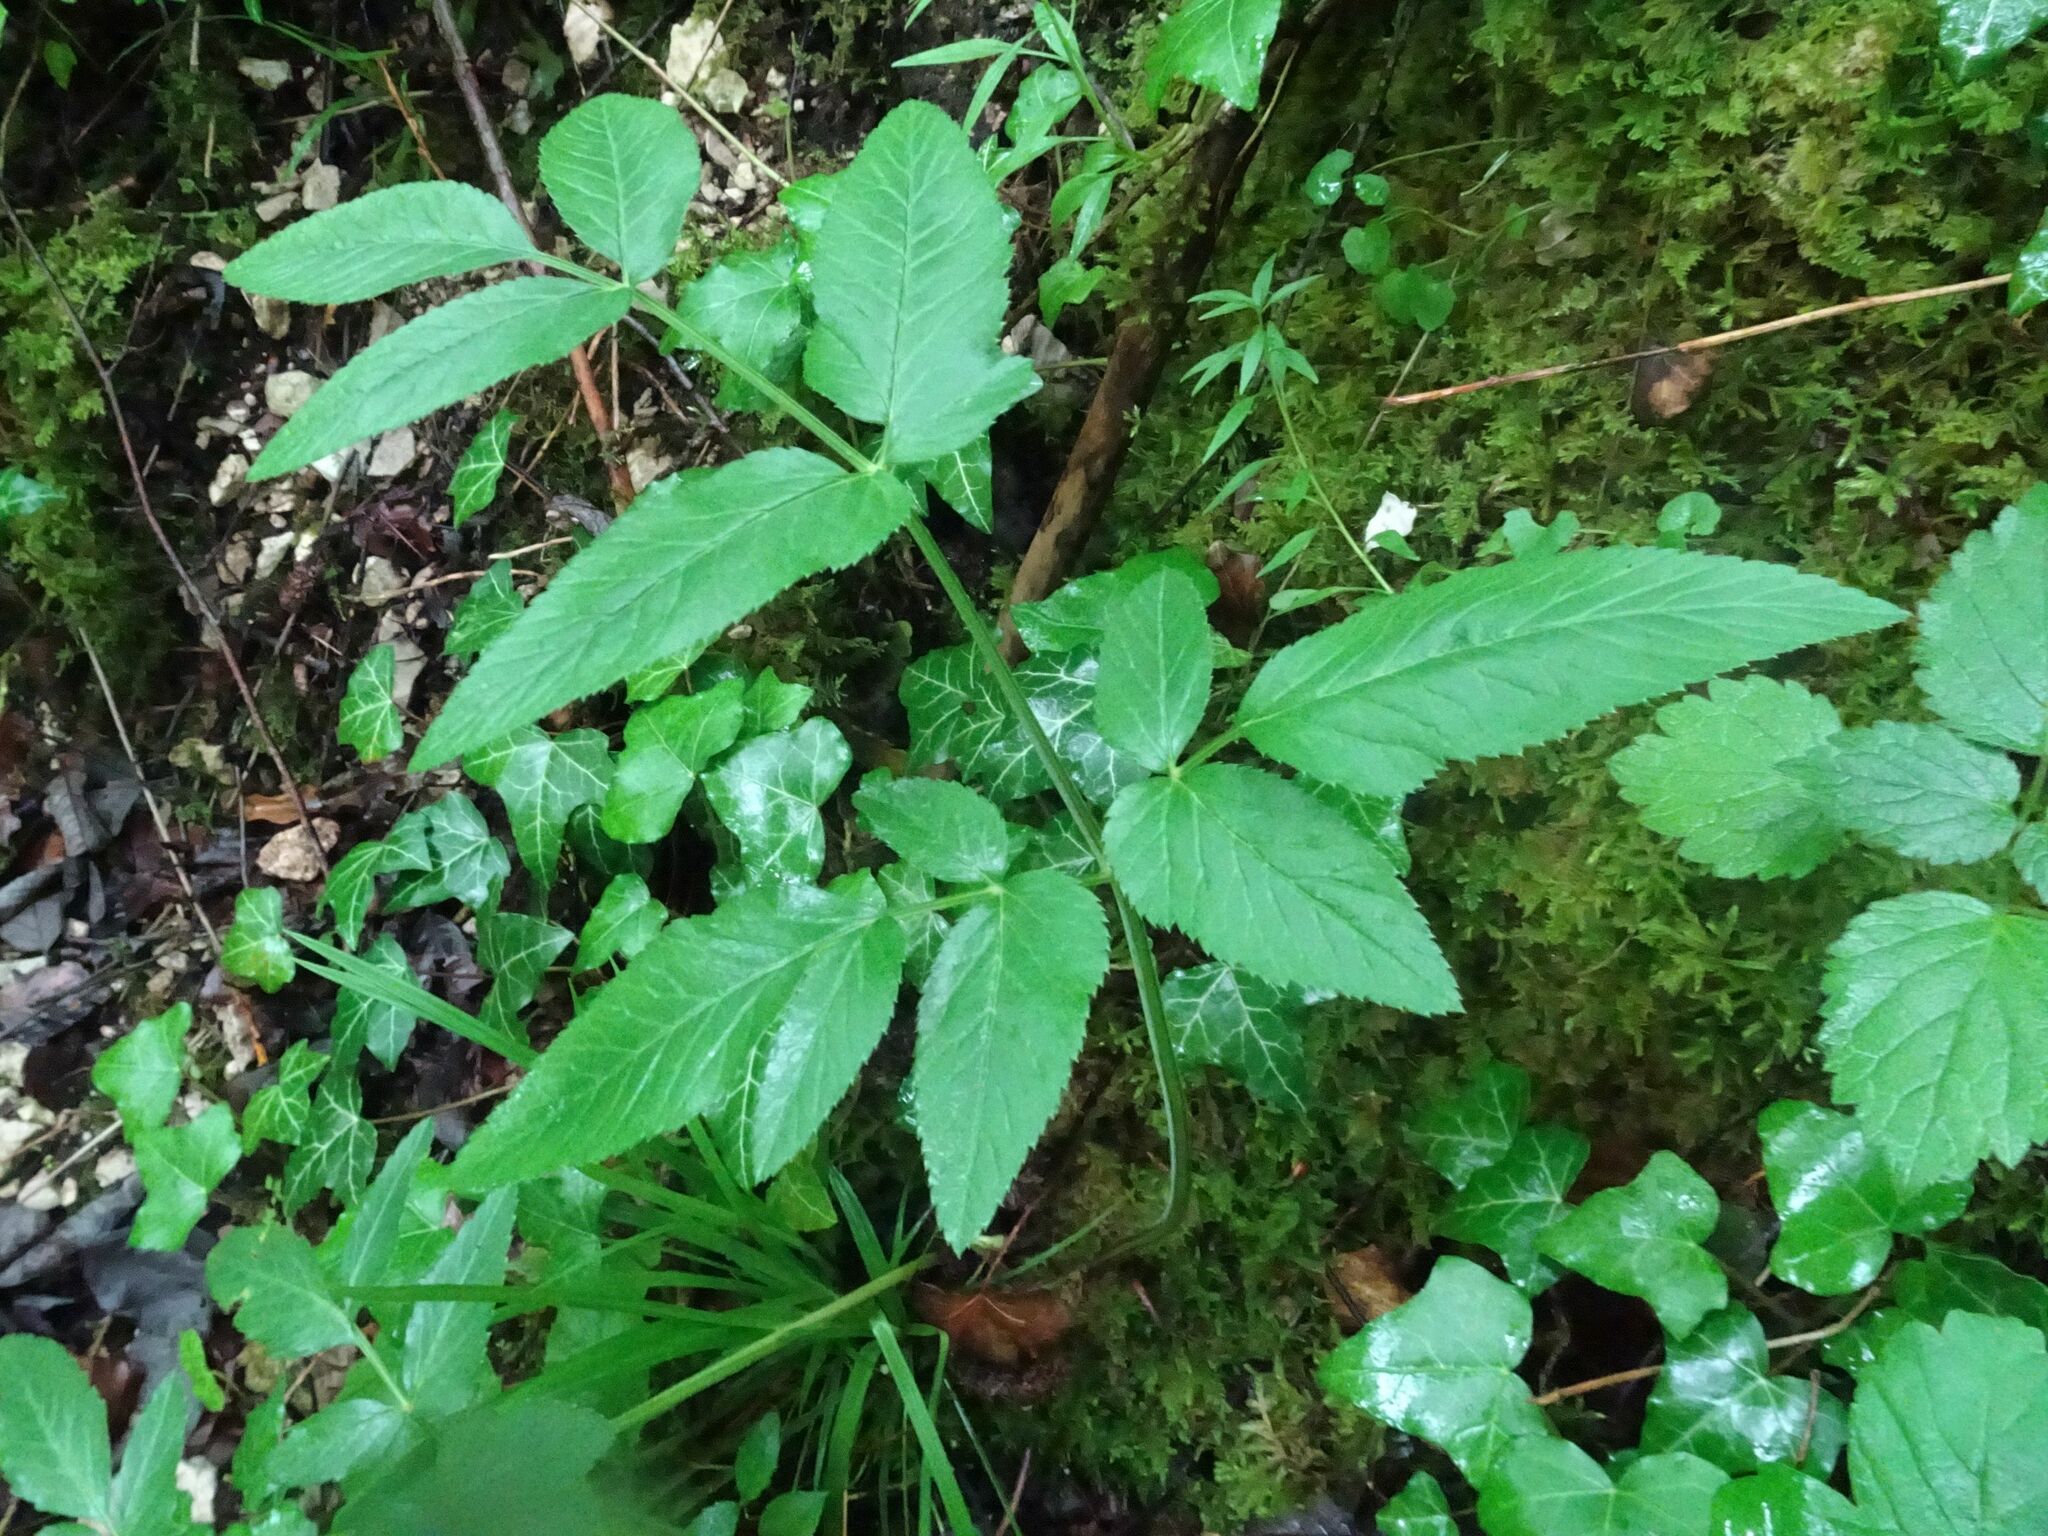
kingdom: Plantae
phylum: Tracheophyta
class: Magnoliopsida
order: Apiales
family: Apiaceae
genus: Angelica
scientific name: Angelica sylvestris
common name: Wild angelica
